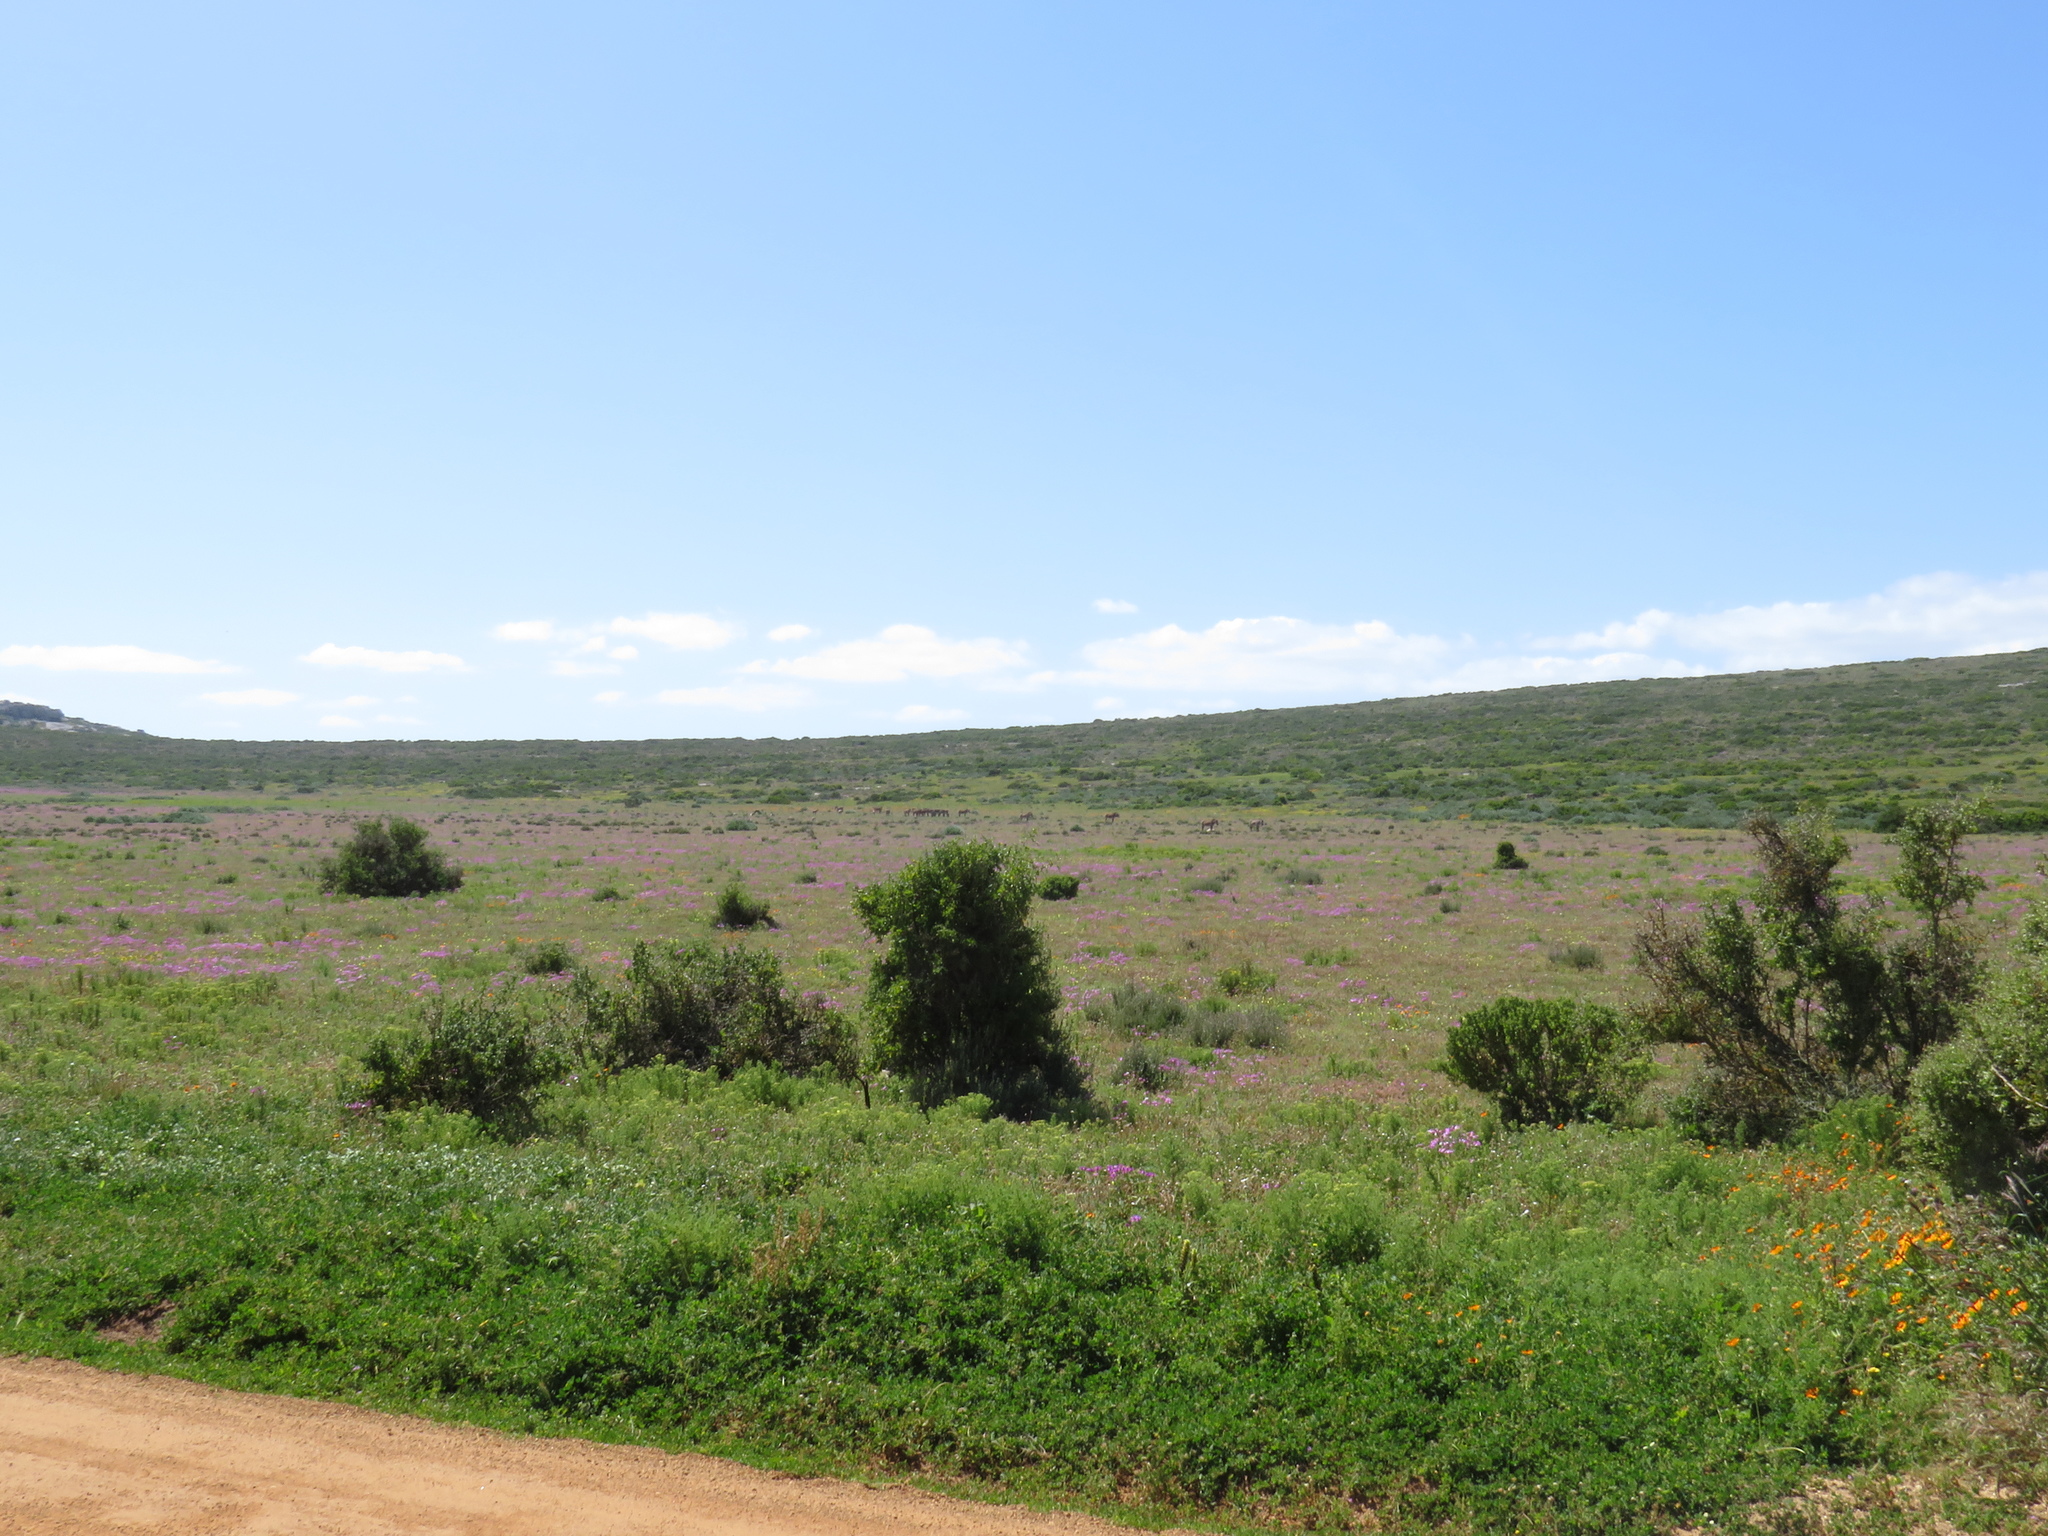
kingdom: Animalia
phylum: Chordata
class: Mammalia
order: Perissodactyla
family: Equidae
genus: Equus
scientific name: Equus zebra
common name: Mountain zebra
